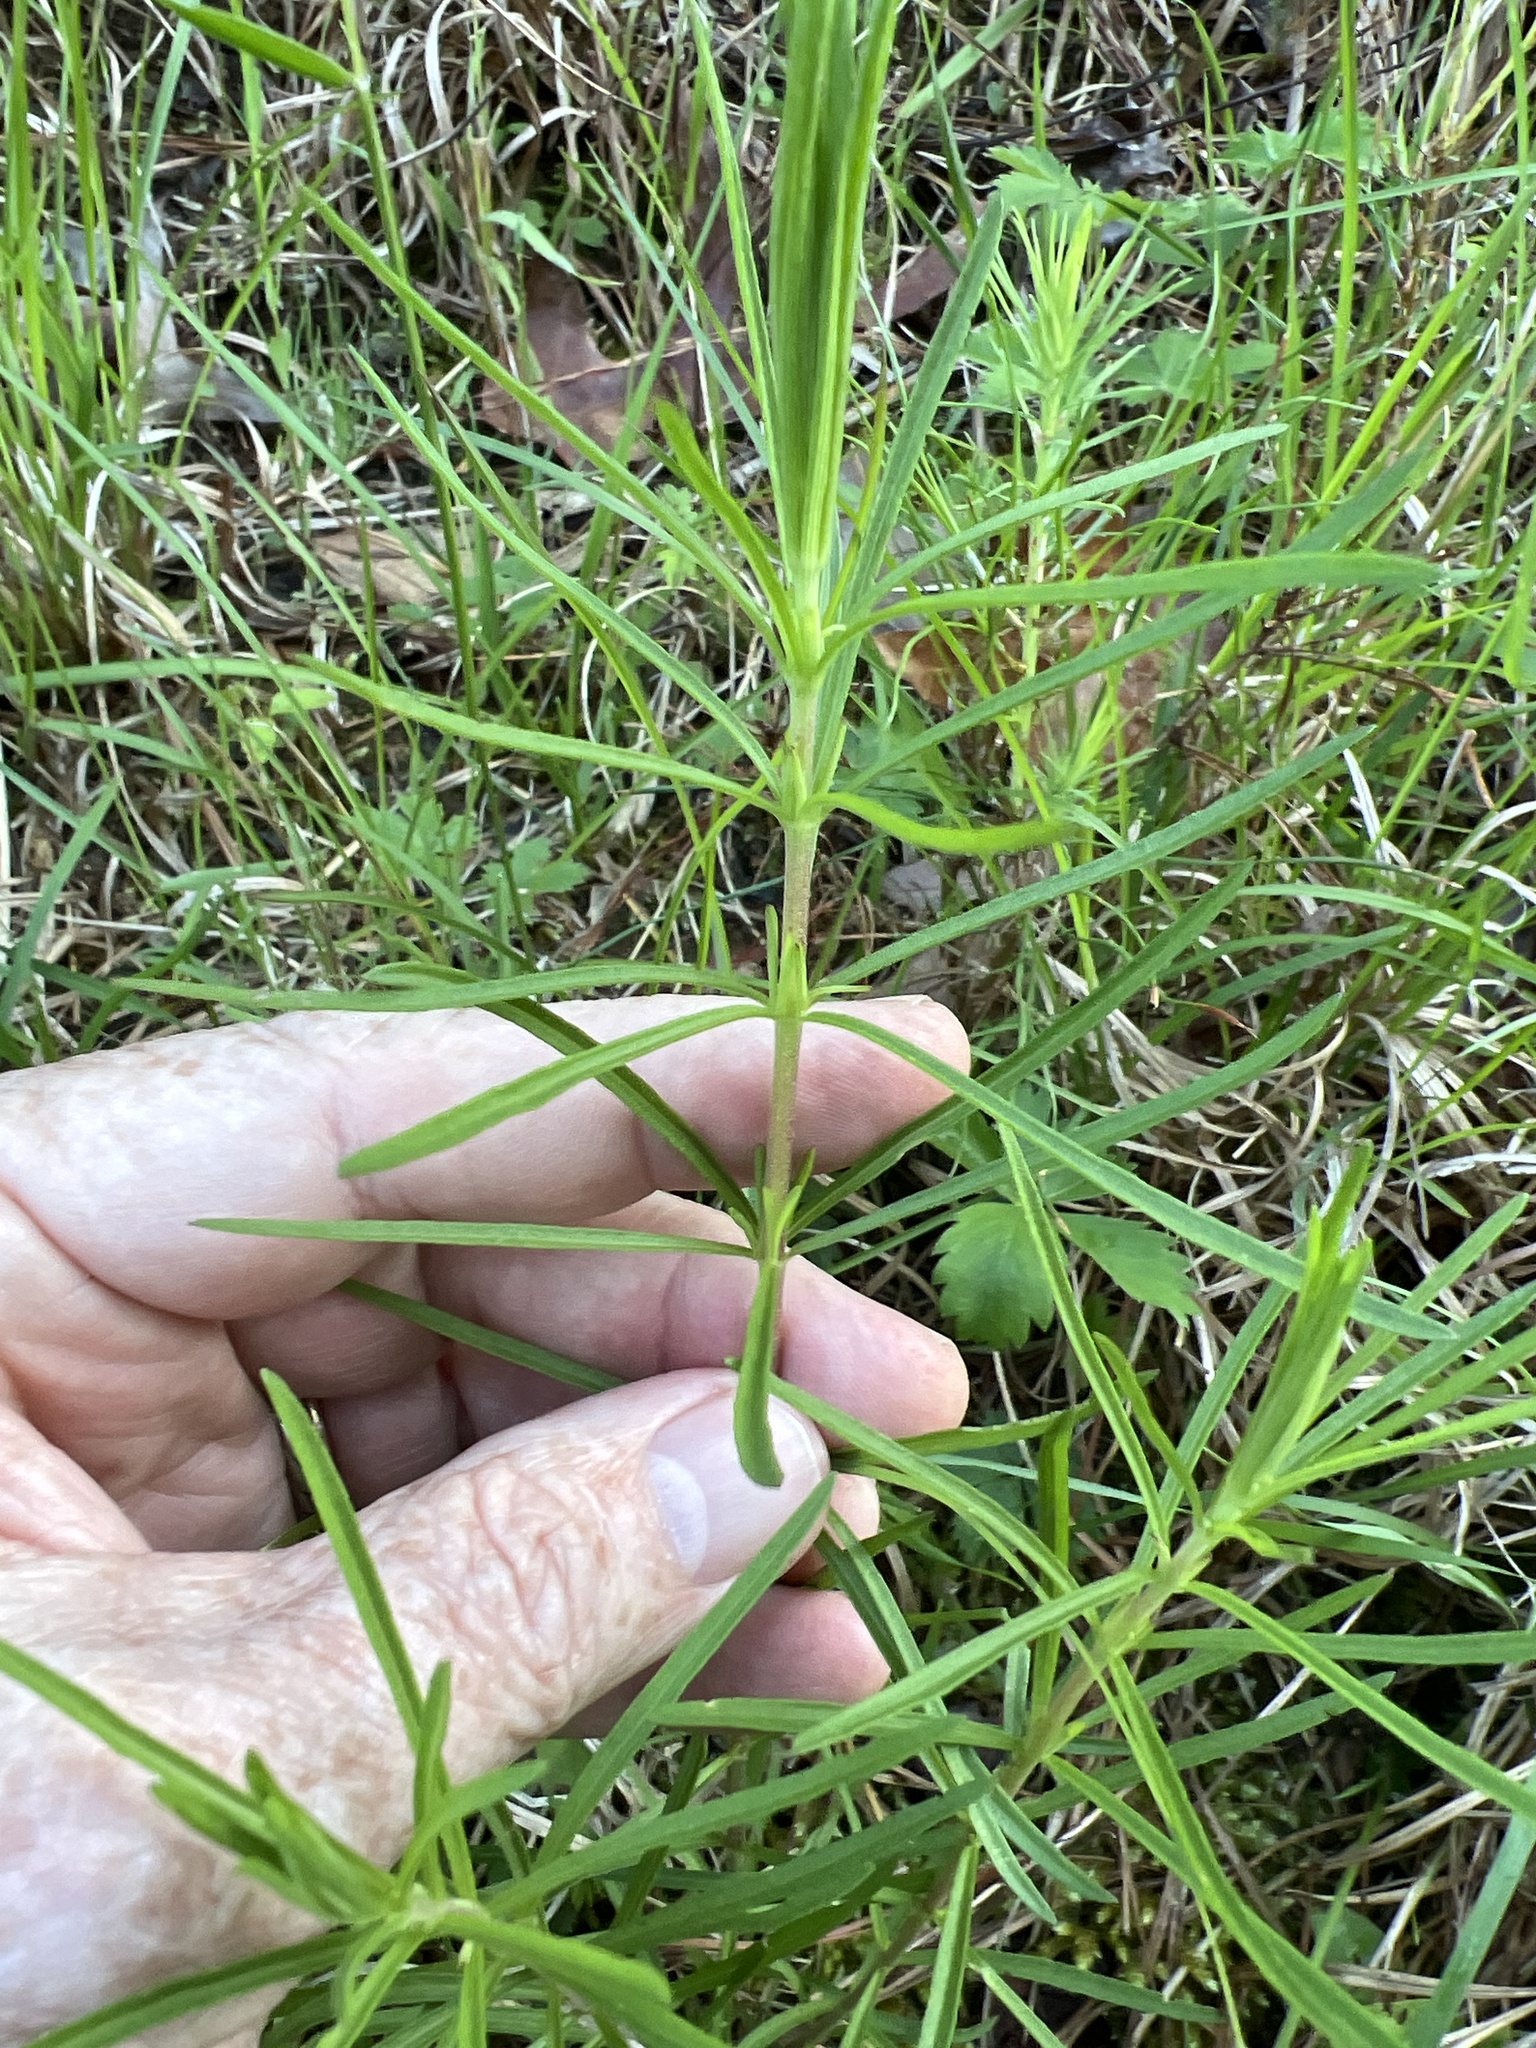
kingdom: Plantae
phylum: Tracheophyta
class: Magnoliopsida
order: Asterales
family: Asteraceae
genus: Eupatorium
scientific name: Eupatorium hyssopifolium
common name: Hyssop-leaf thoroughwort
